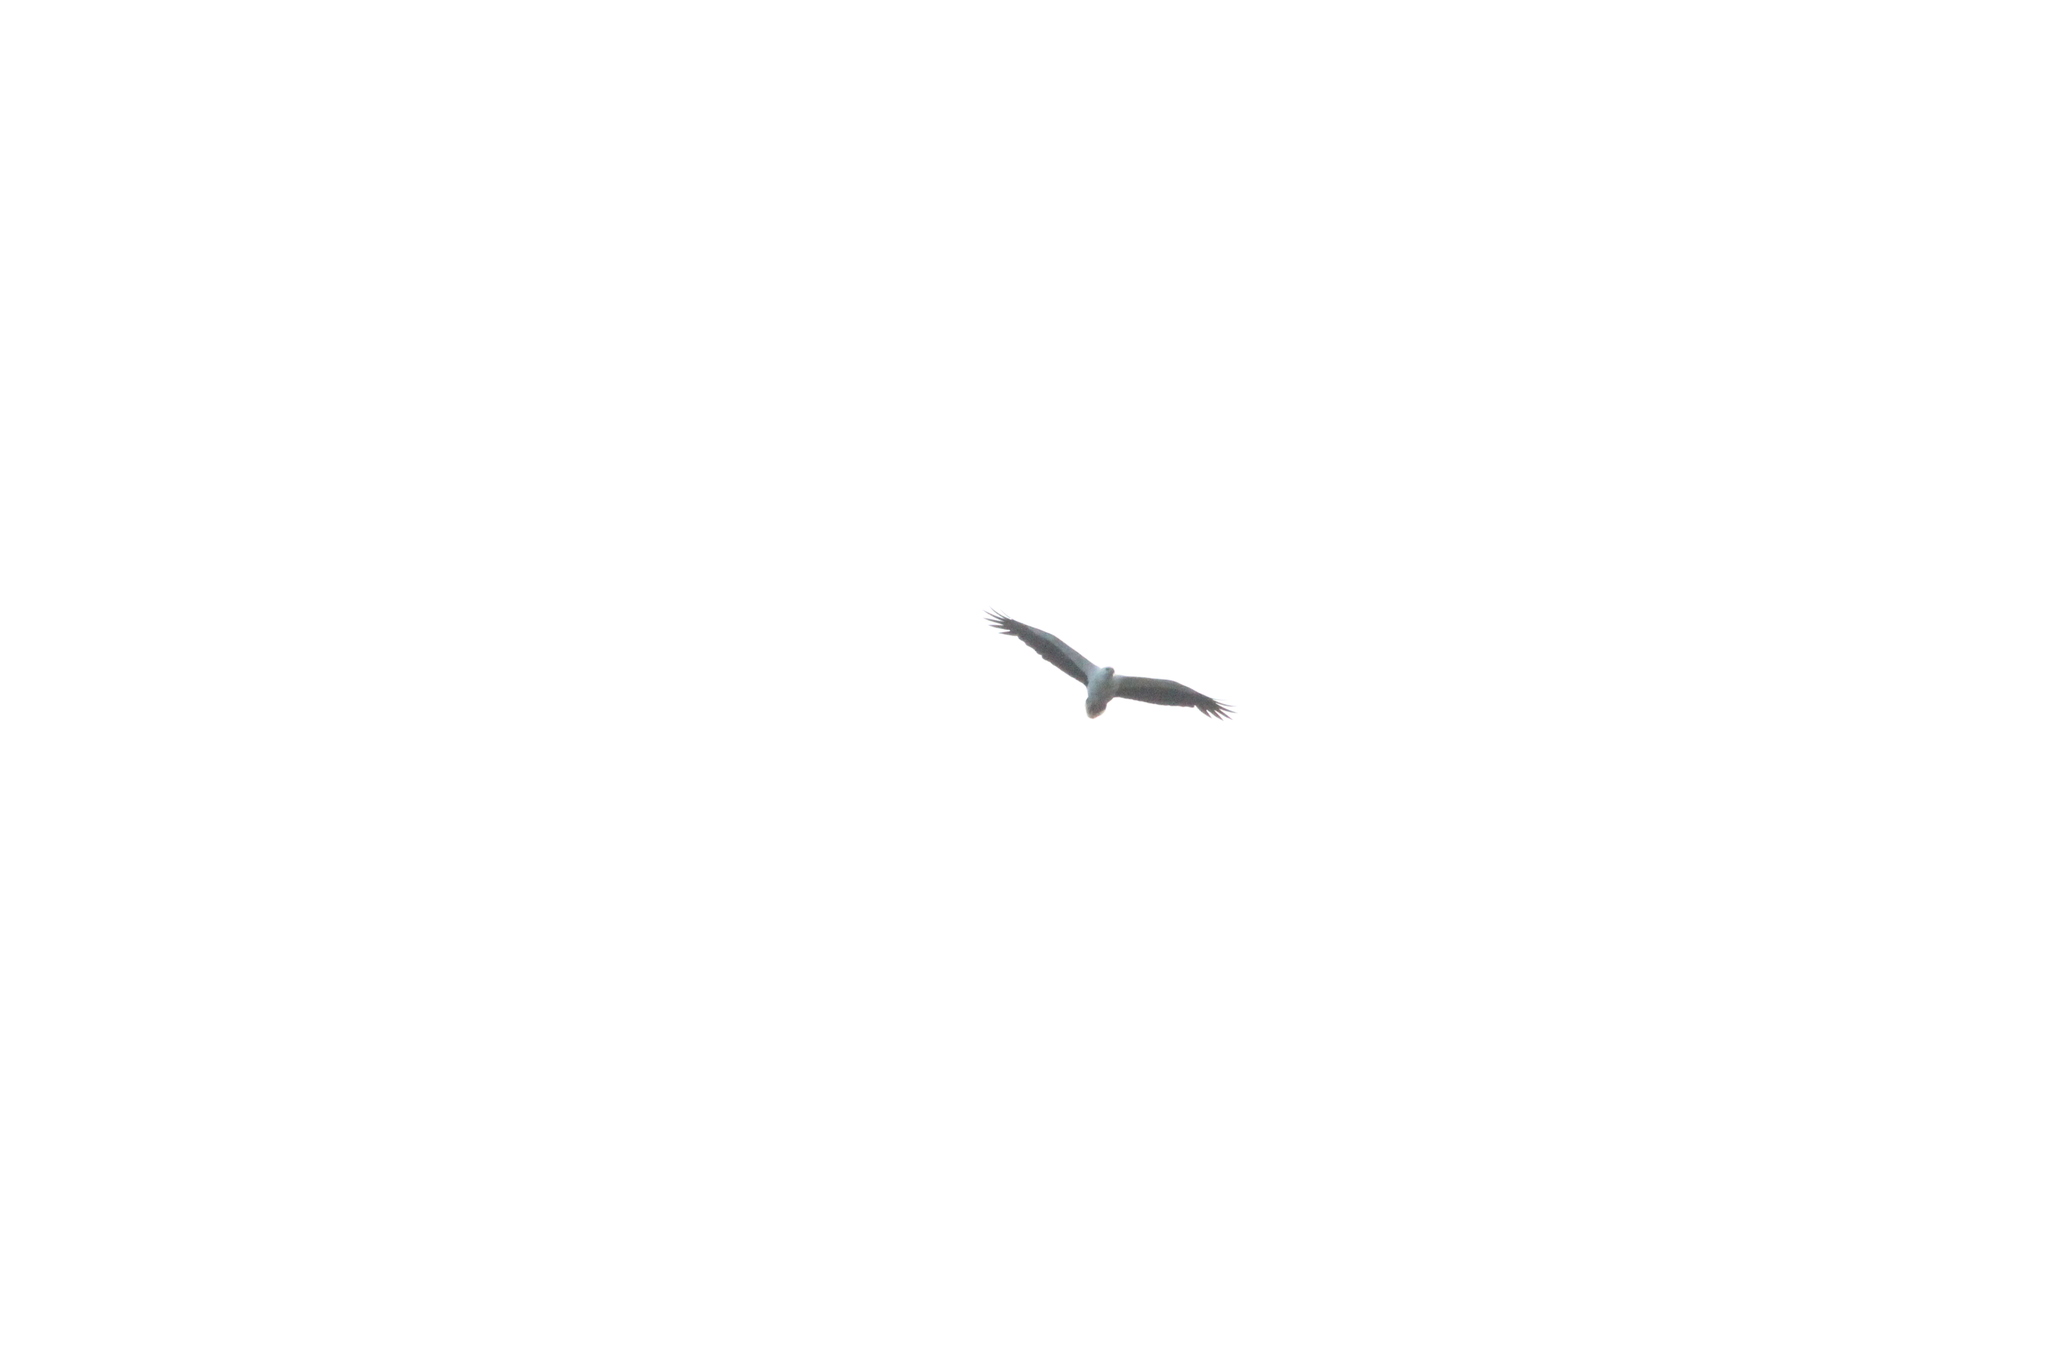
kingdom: Animalia
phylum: Chordata
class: Aves
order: Accipitriformes
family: Accipitridae
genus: Haliaeetus
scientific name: Haliaeetus leucogaster
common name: White-bellied sea eagle
